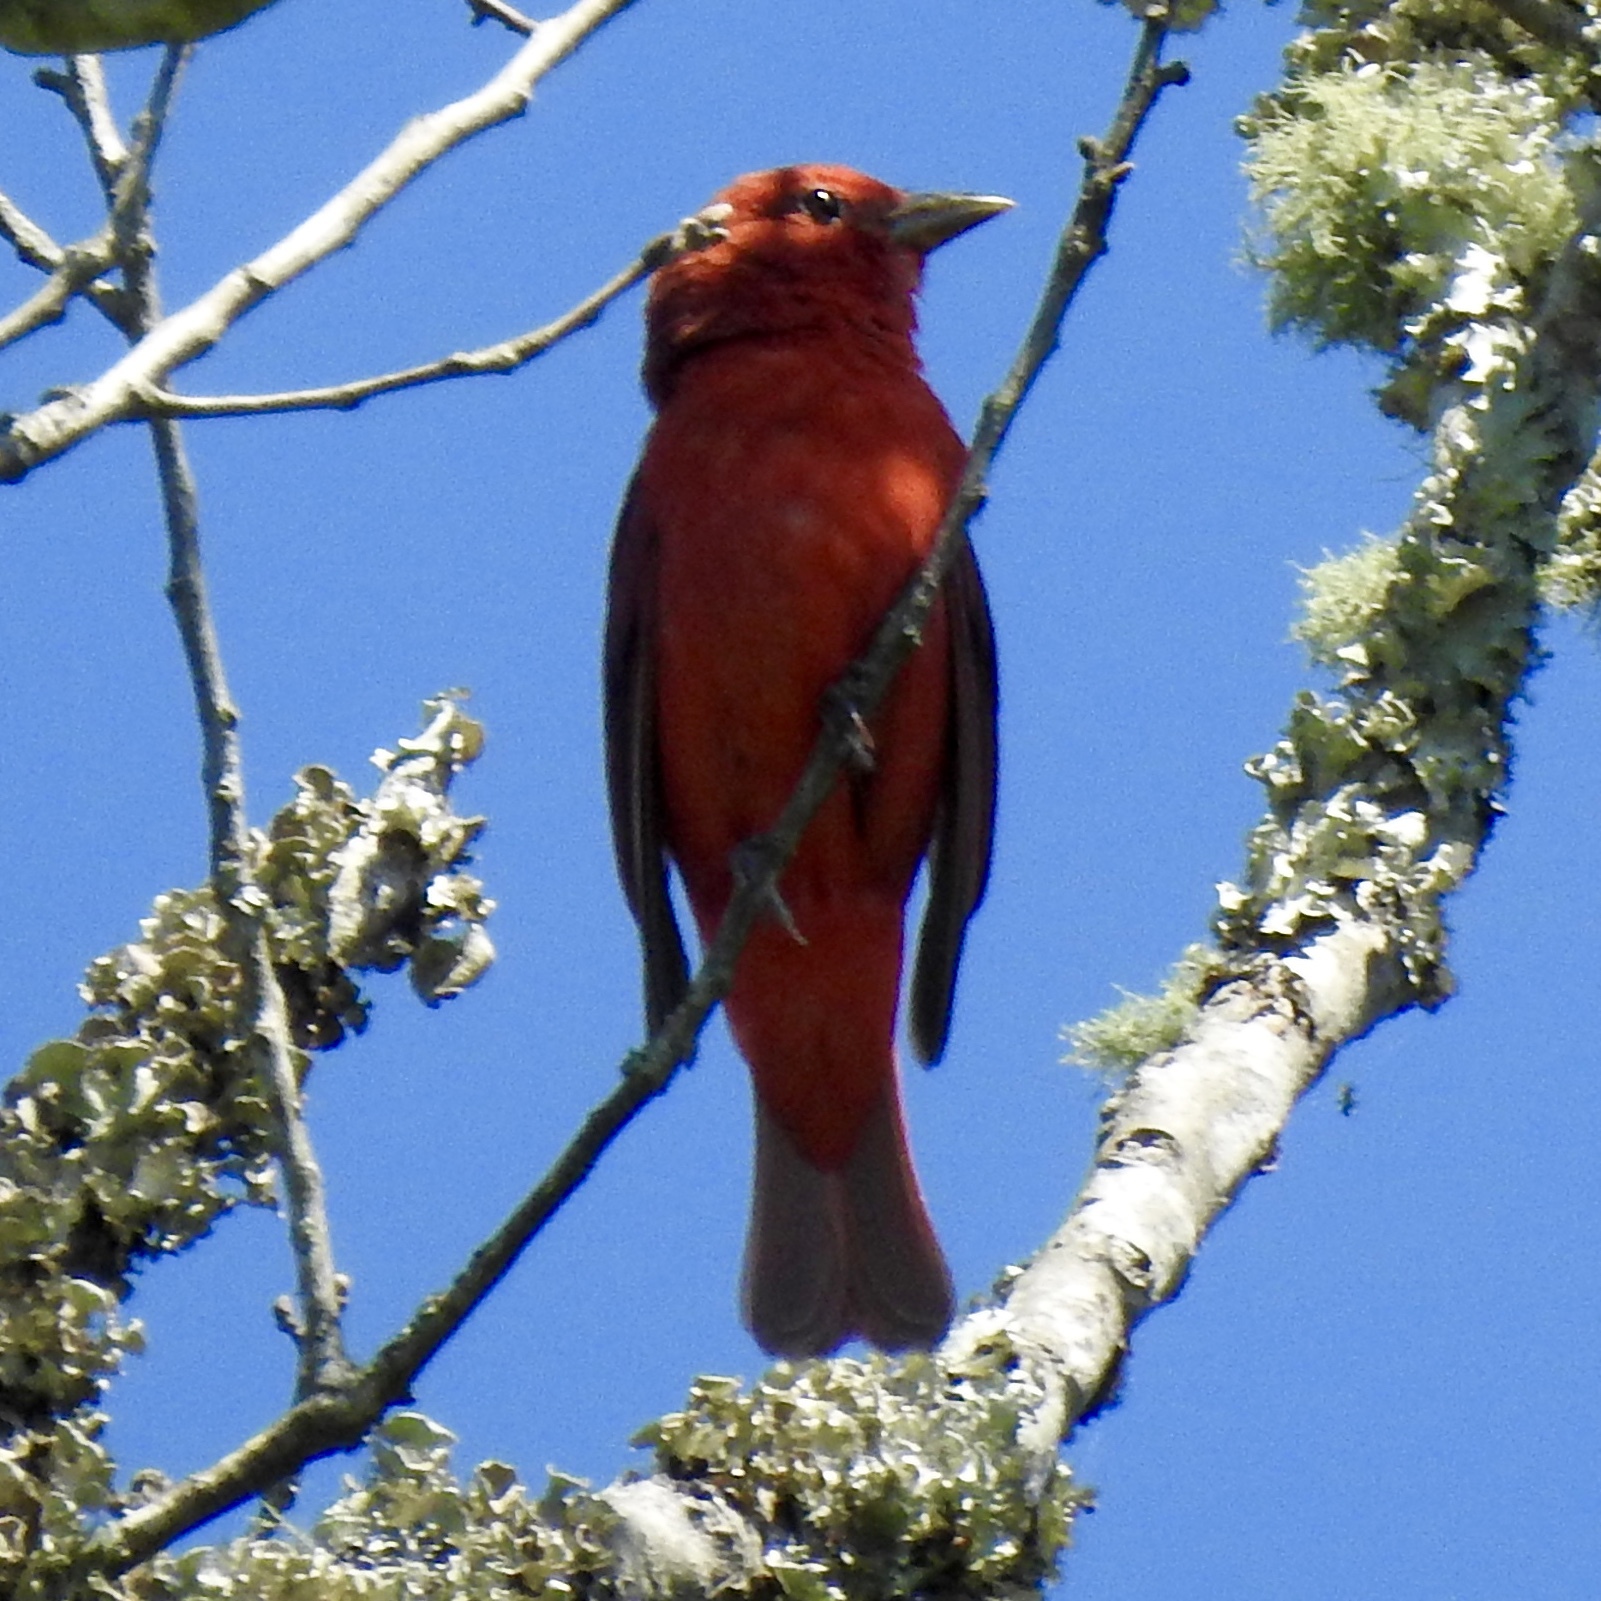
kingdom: Animalia
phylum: Chordata
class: Aves
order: Passeriformes
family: Cardinalidae
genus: Piranga
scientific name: Piranga olivacea
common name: Scarlet tanager
